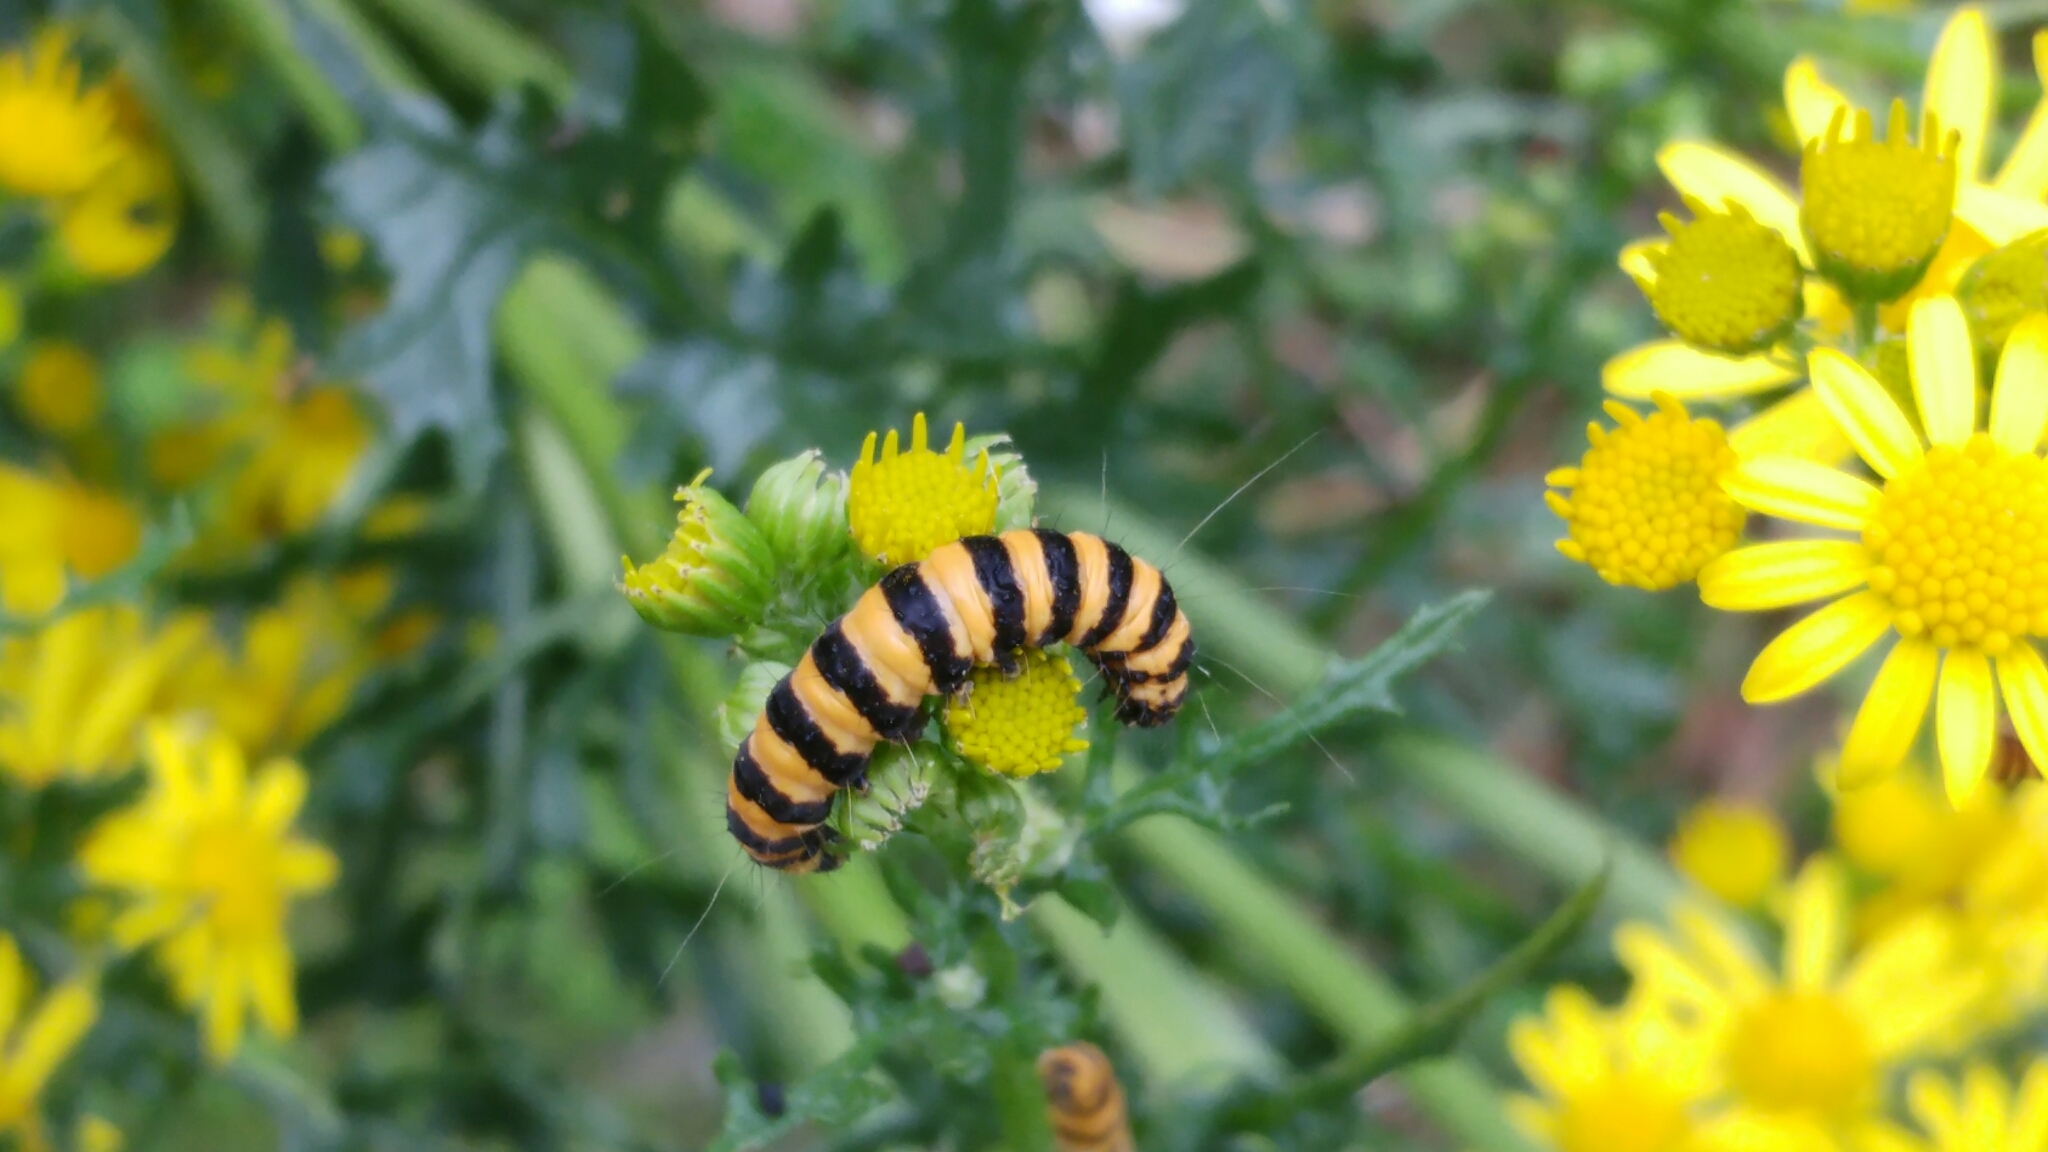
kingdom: Animalia
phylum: Arthropoda
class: Insecta
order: Lepidoptera
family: Erebidae
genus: Tyria
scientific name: Tyria jacobaeae
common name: Cinnabar
